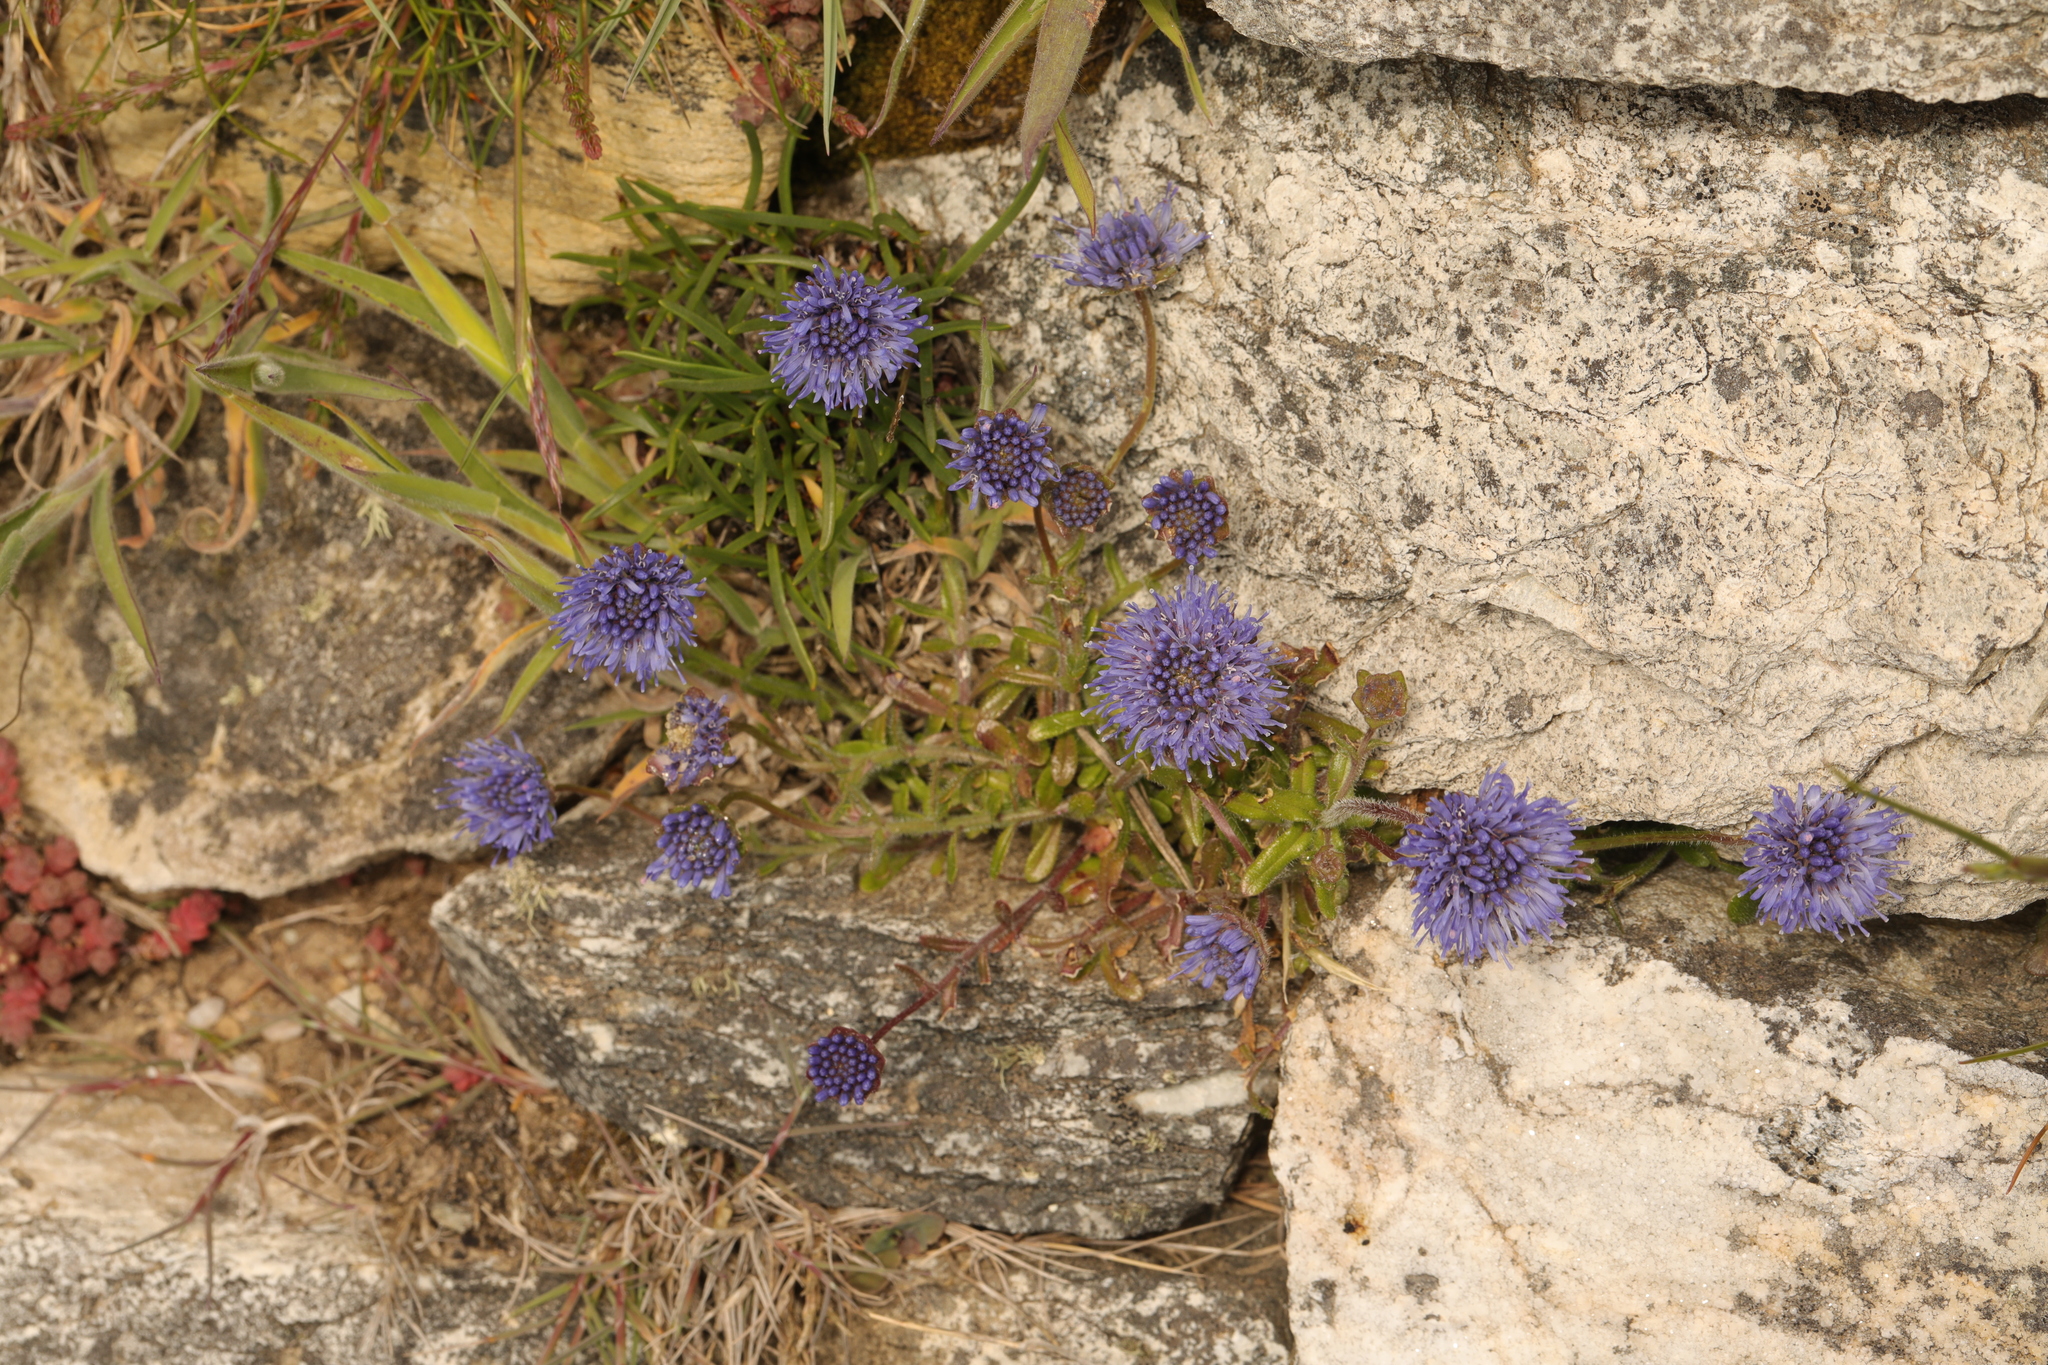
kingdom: Plantae
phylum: Tracheophyta
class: Magnoliopsida
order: Asterales
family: Campanulaceae
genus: Jasione
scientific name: Jasione montana
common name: Sheep's-bit
